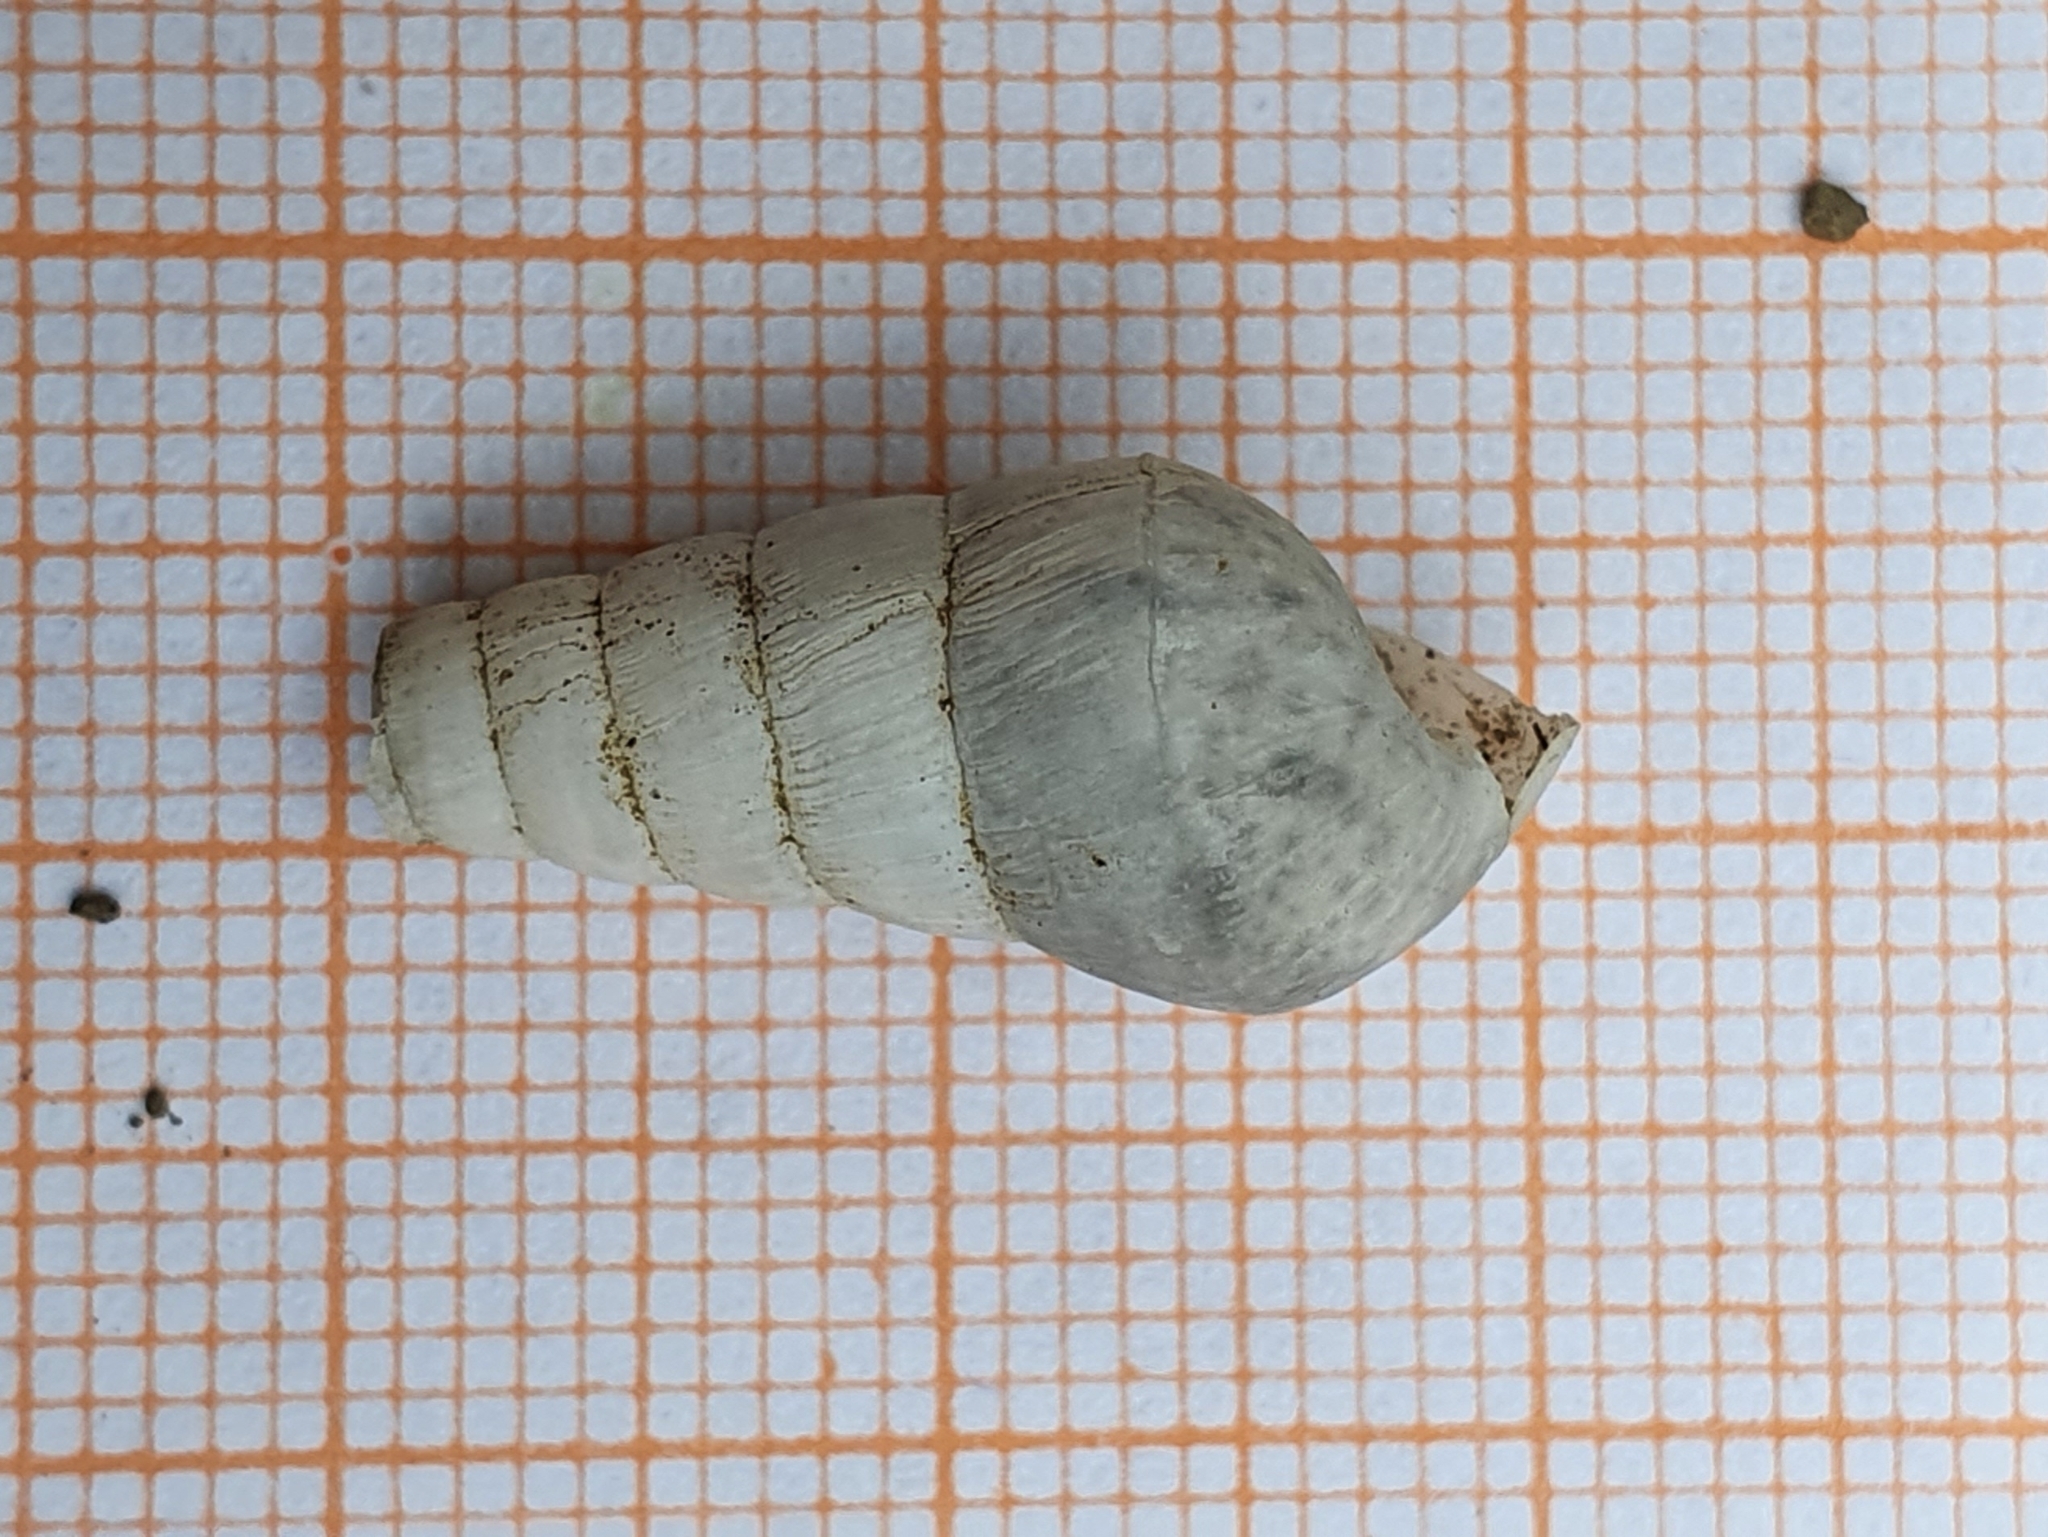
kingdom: Animalia
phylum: Mollusca
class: Gastropoda
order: Stylommatophora
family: Achatinidae
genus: Rumina
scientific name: Rumina decollata
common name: Decollate snail
